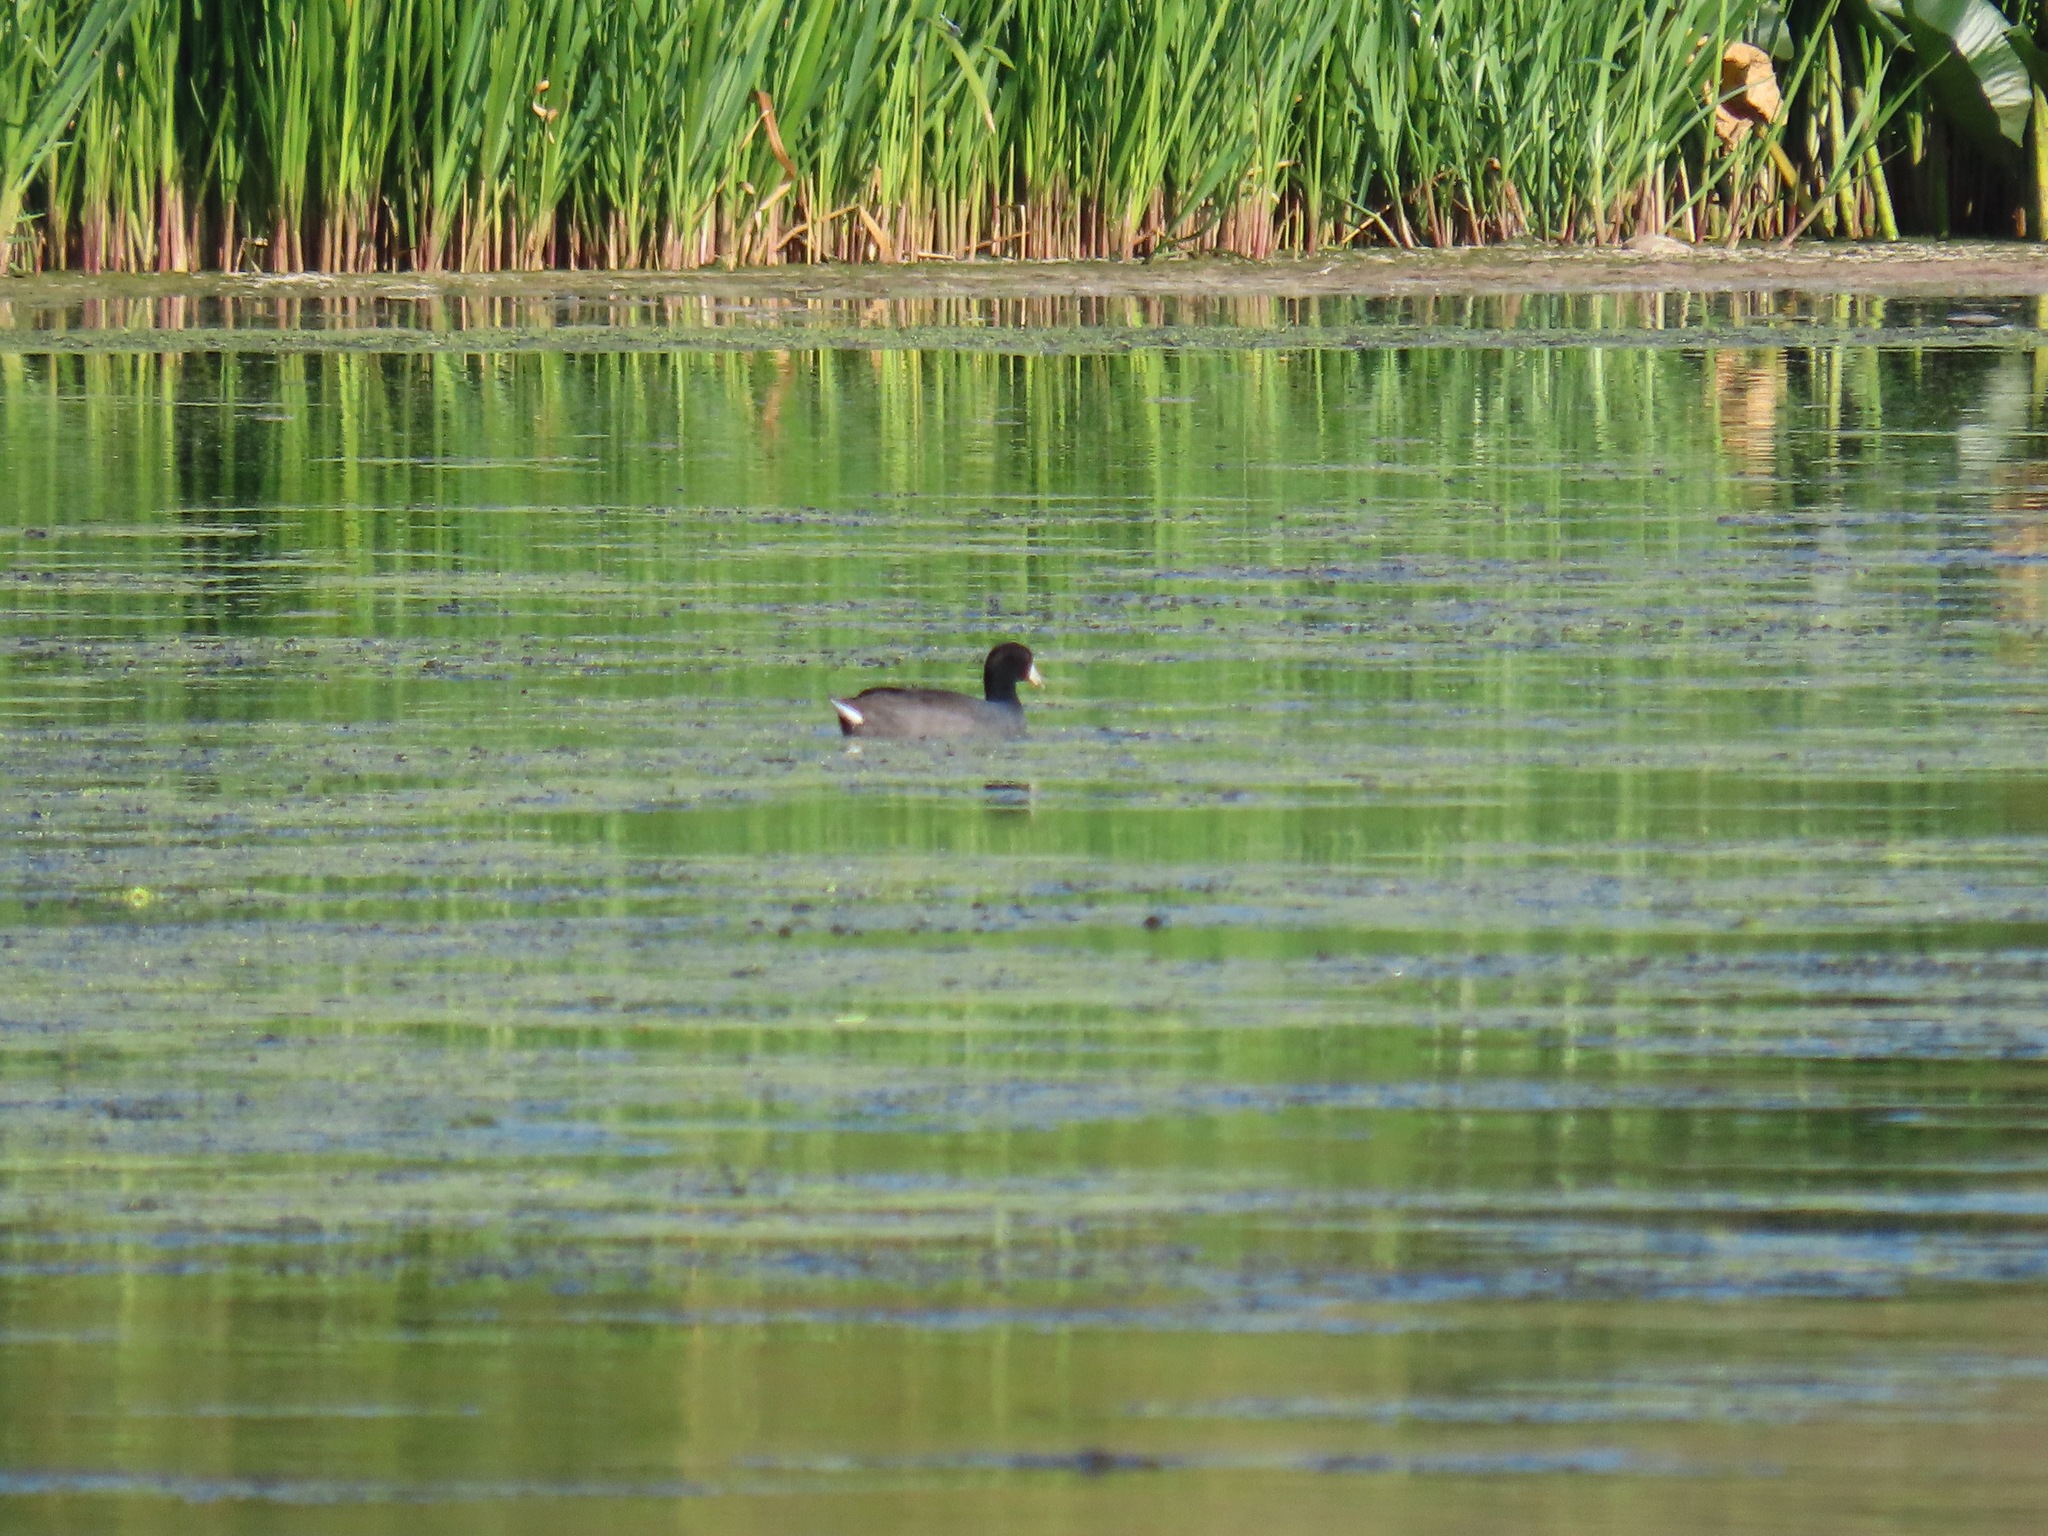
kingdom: Animalia
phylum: Chordata
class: Aves
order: Gruiformes
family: Rallidae
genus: Fulica
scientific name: Fulica americana
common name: American coot
